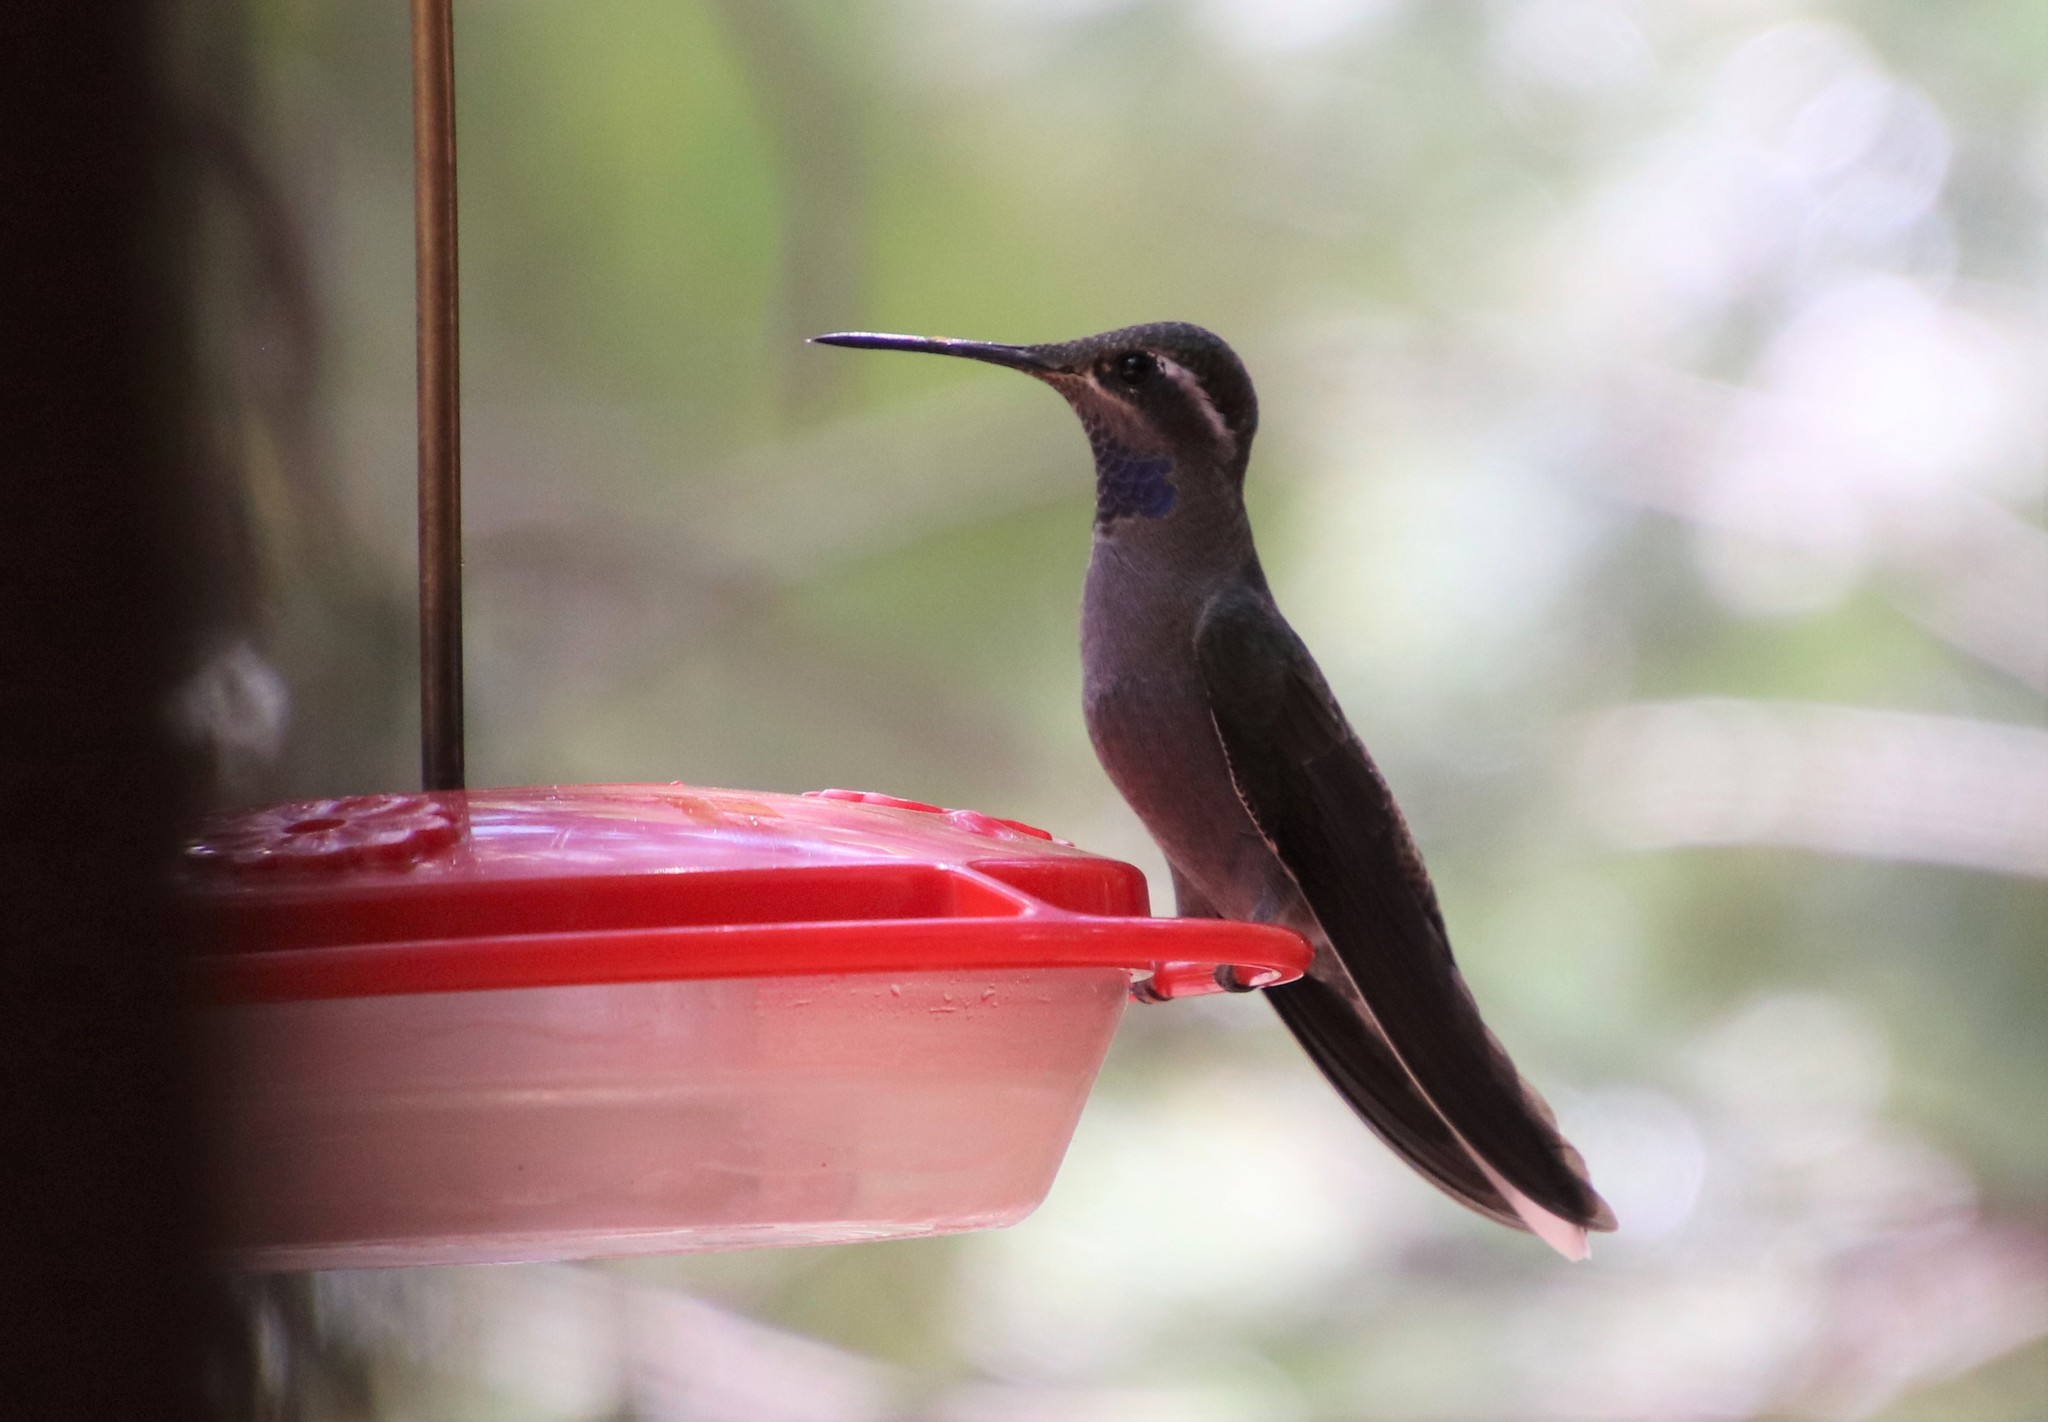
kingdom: Animalia
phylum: Chordata
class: Aves
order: Apodiformes
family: Trochilidae
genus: Lampornis
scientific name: Lampornis clemenciae
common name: Blue-throated mountaingem
